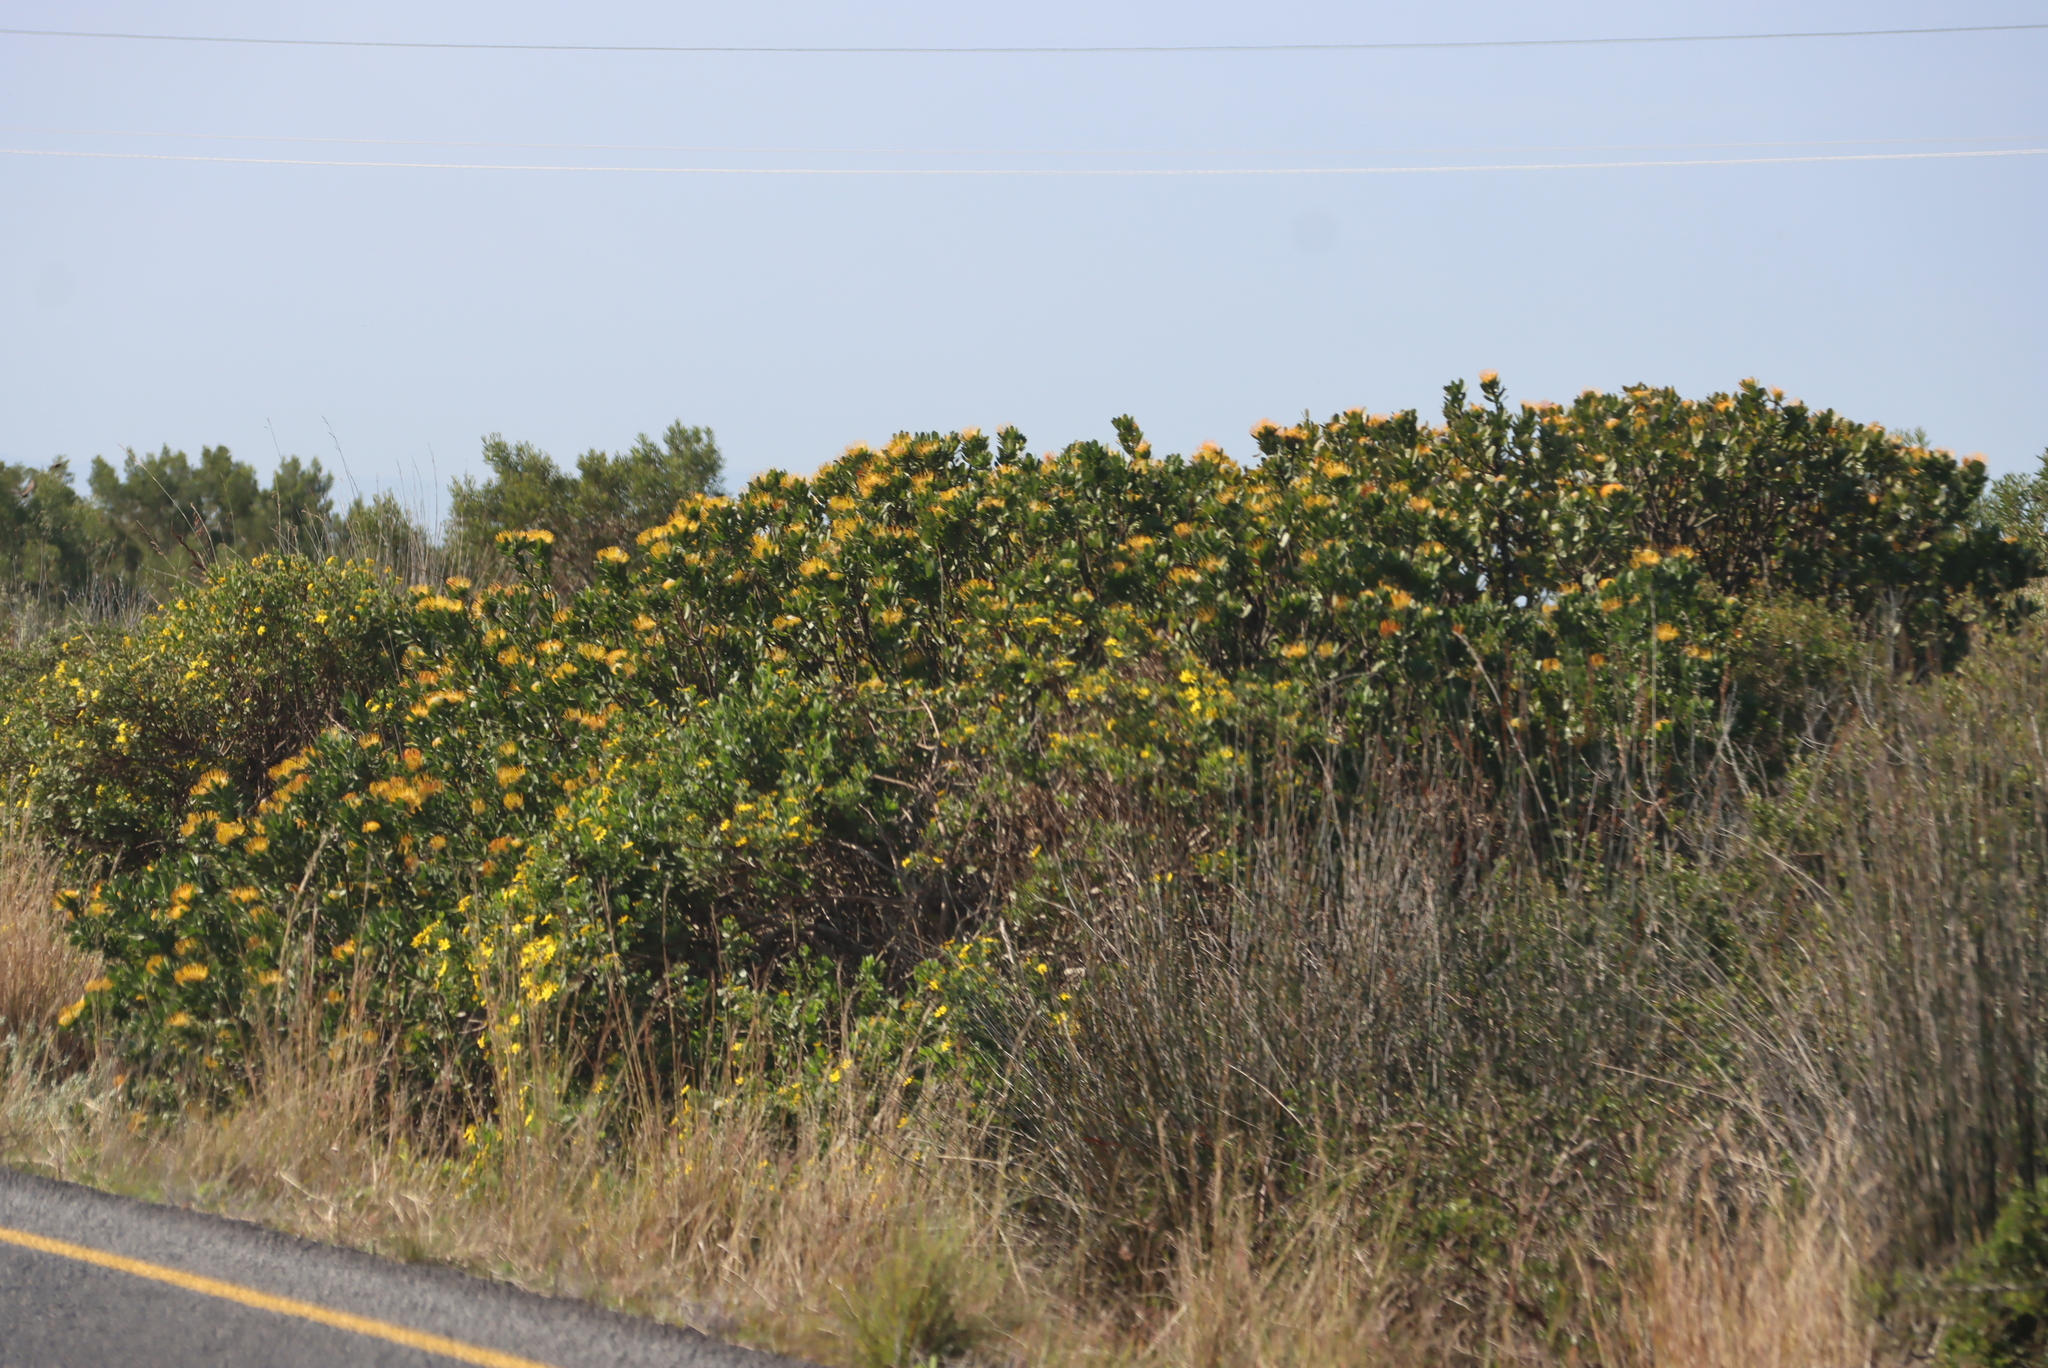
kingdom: Plantae
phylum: Tracheophyta
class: Magnoliopsida
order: Proteales
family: Proteaceae
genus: Leucospermum
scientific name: Leucospermum praecox
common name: Mossel bay pincushion
